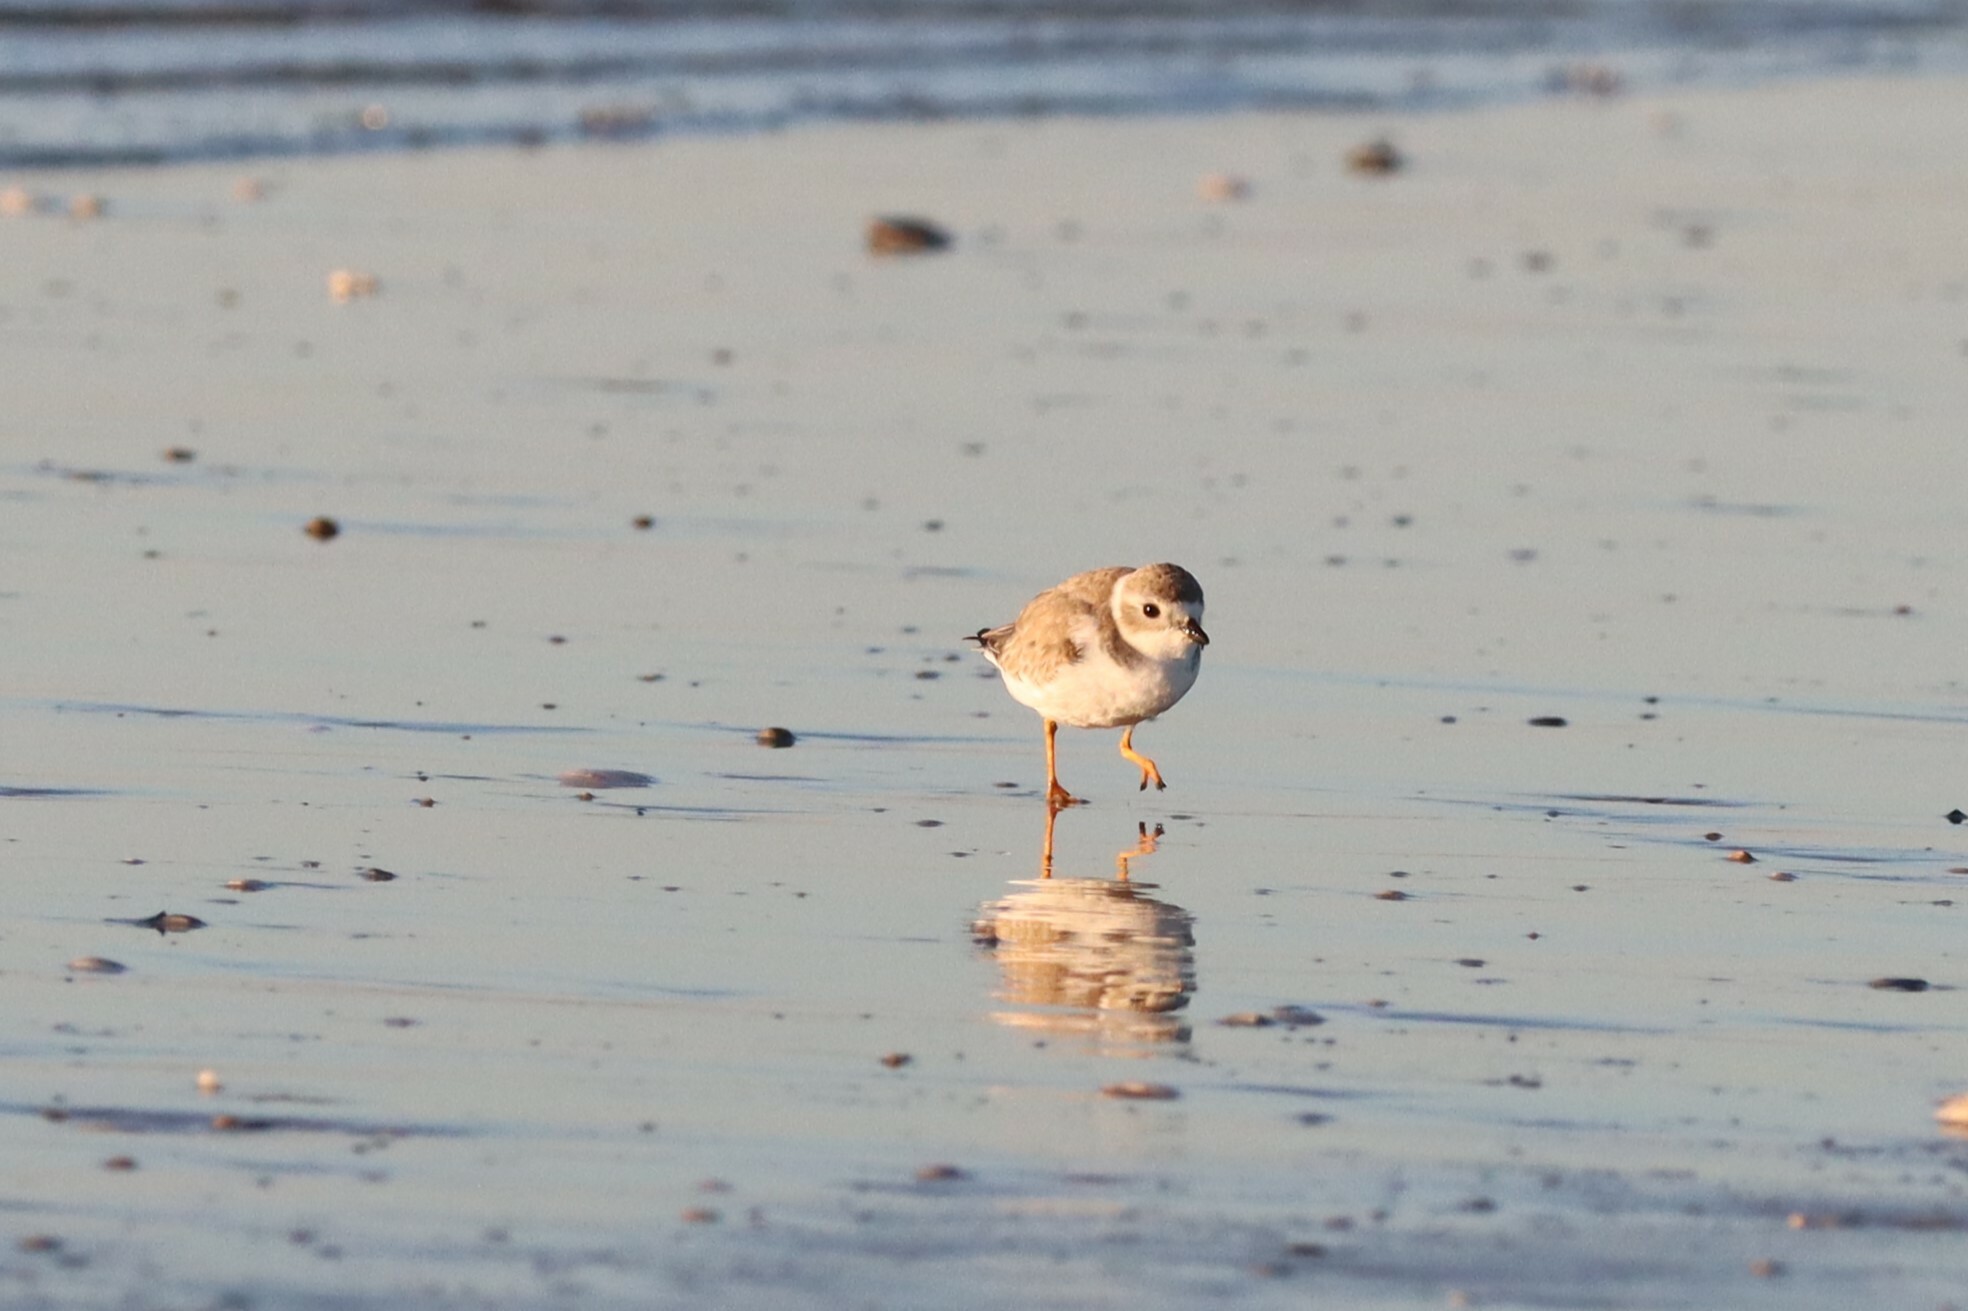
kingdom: Animalia
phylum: Chordata
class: Aves
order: Charadriiformes
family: Charadriidae
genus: Charadrius
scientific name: Charadrius melodus
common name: Piping plover
